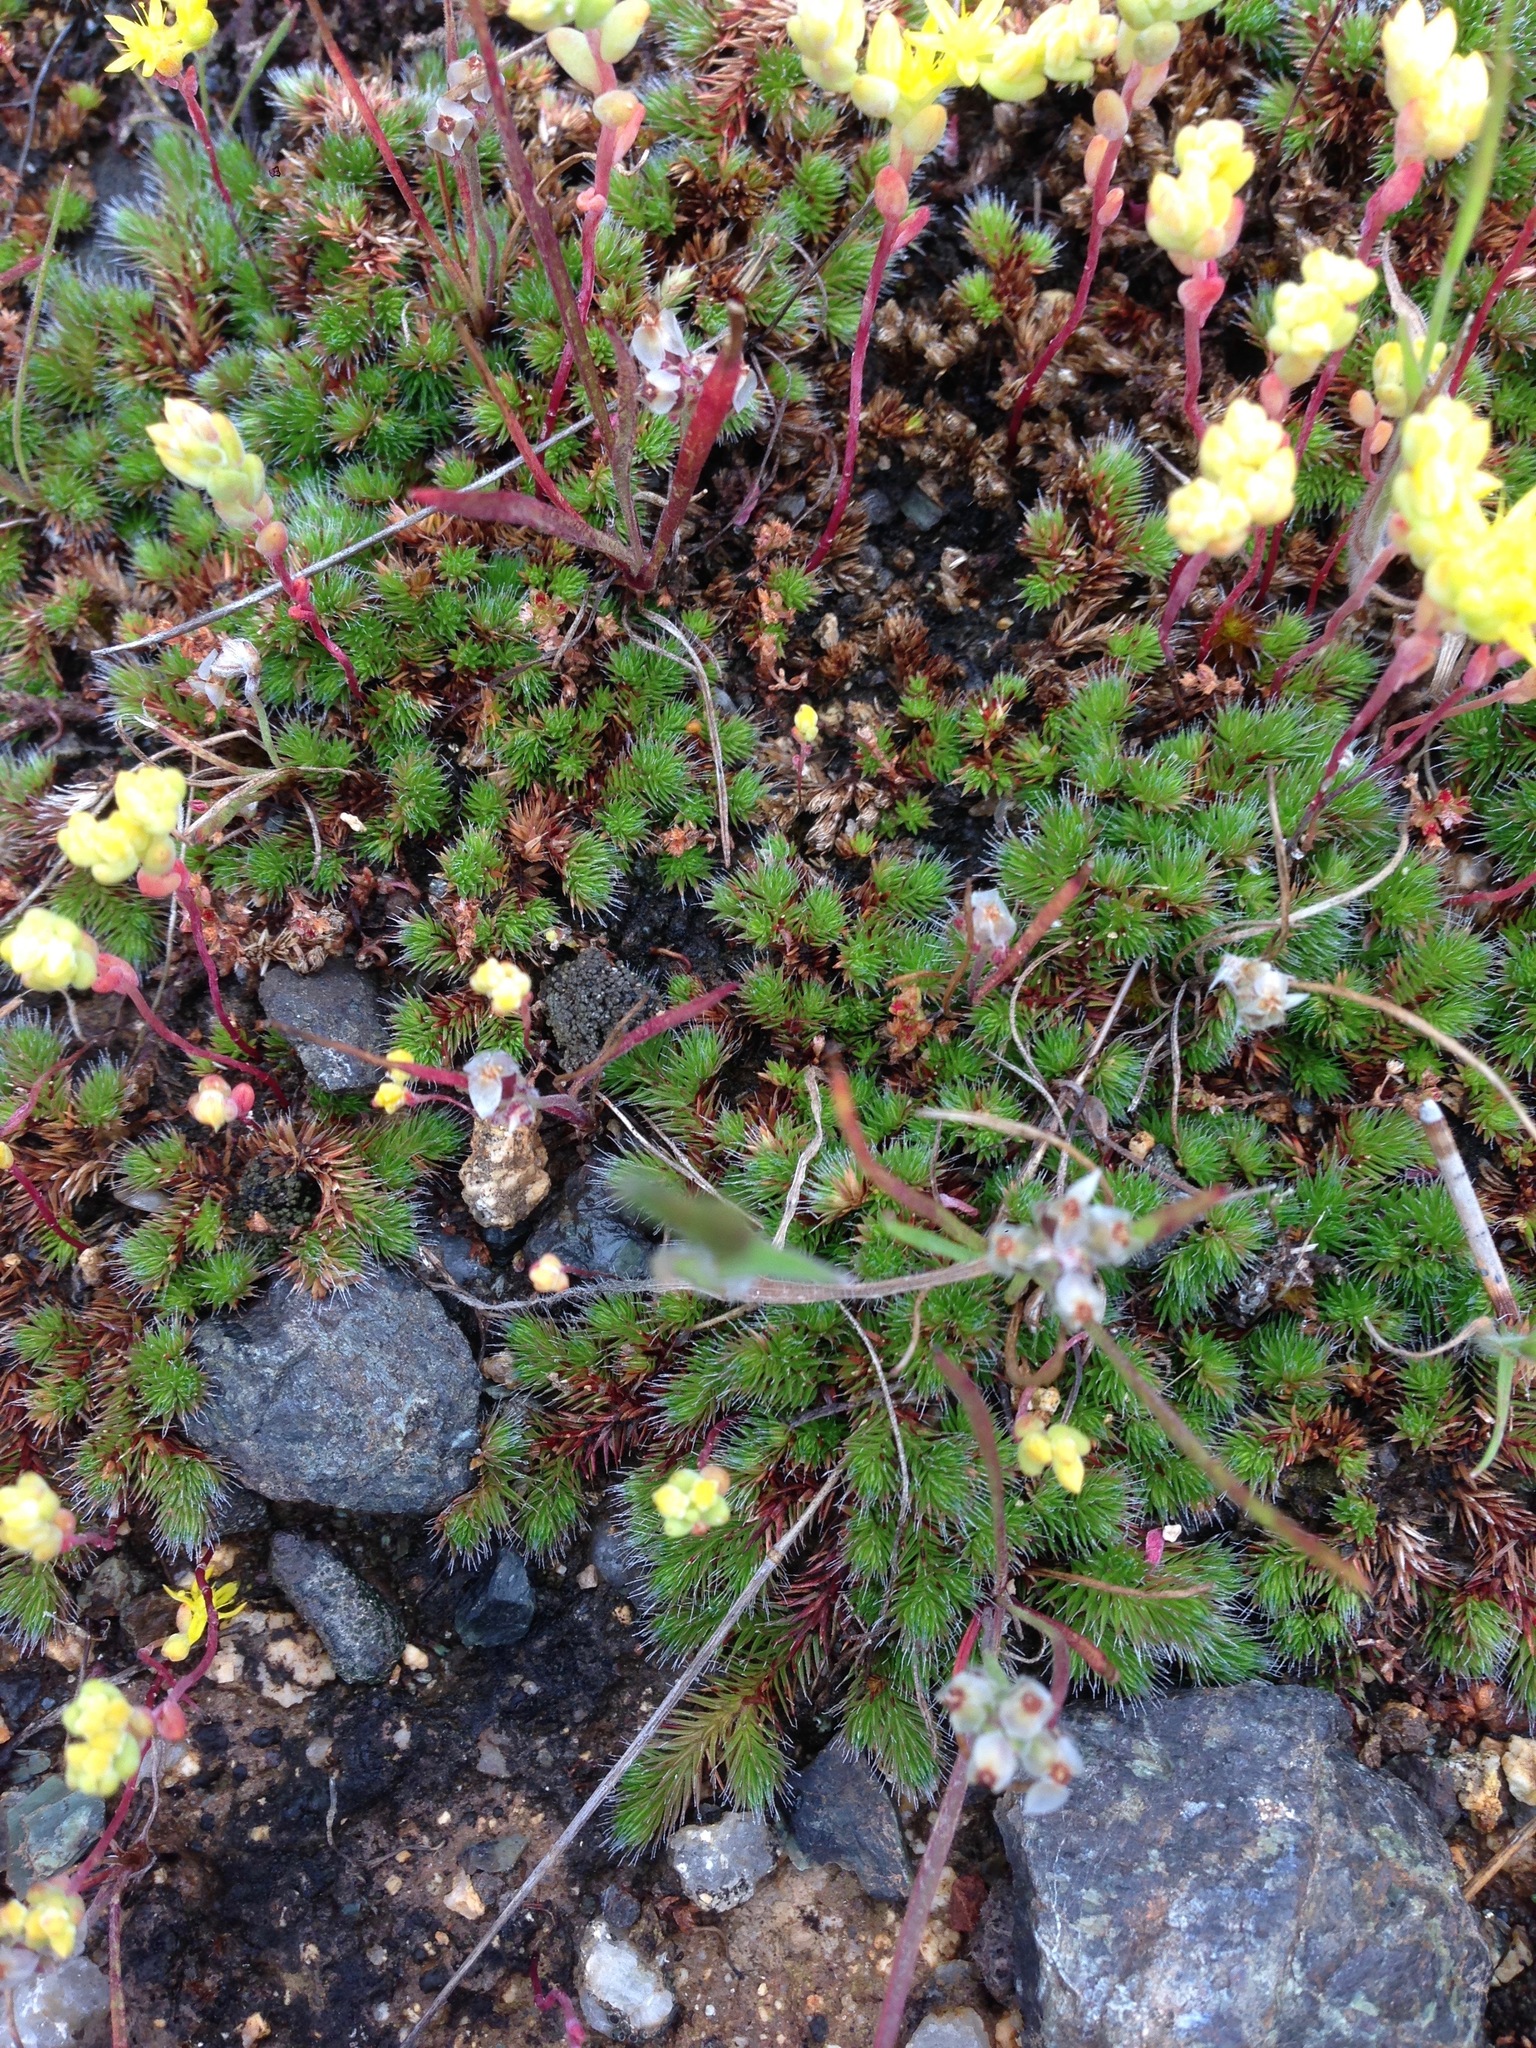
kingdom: Plantae
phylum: Tracheophyta
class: Lycopodiopsida
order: Selaginellales
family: Selaginellaceae
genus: Selaginella
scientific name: Selaginella hansenii
